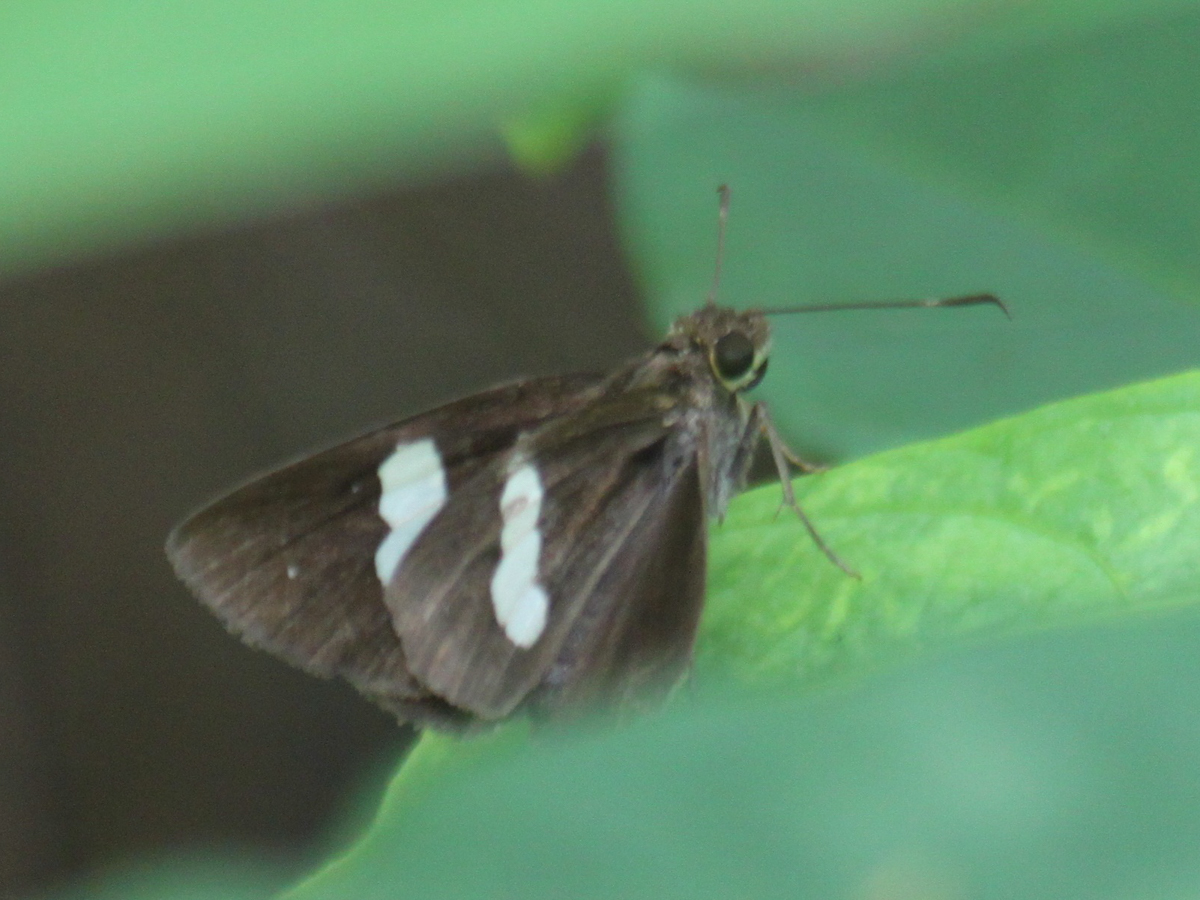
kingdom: Animalia
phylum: Arthropoda
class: Insecta
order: Lepidoptera
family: Hesperiidae
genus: Notocrypta
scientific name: Notocrypta paralysos
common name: Common banded demon
